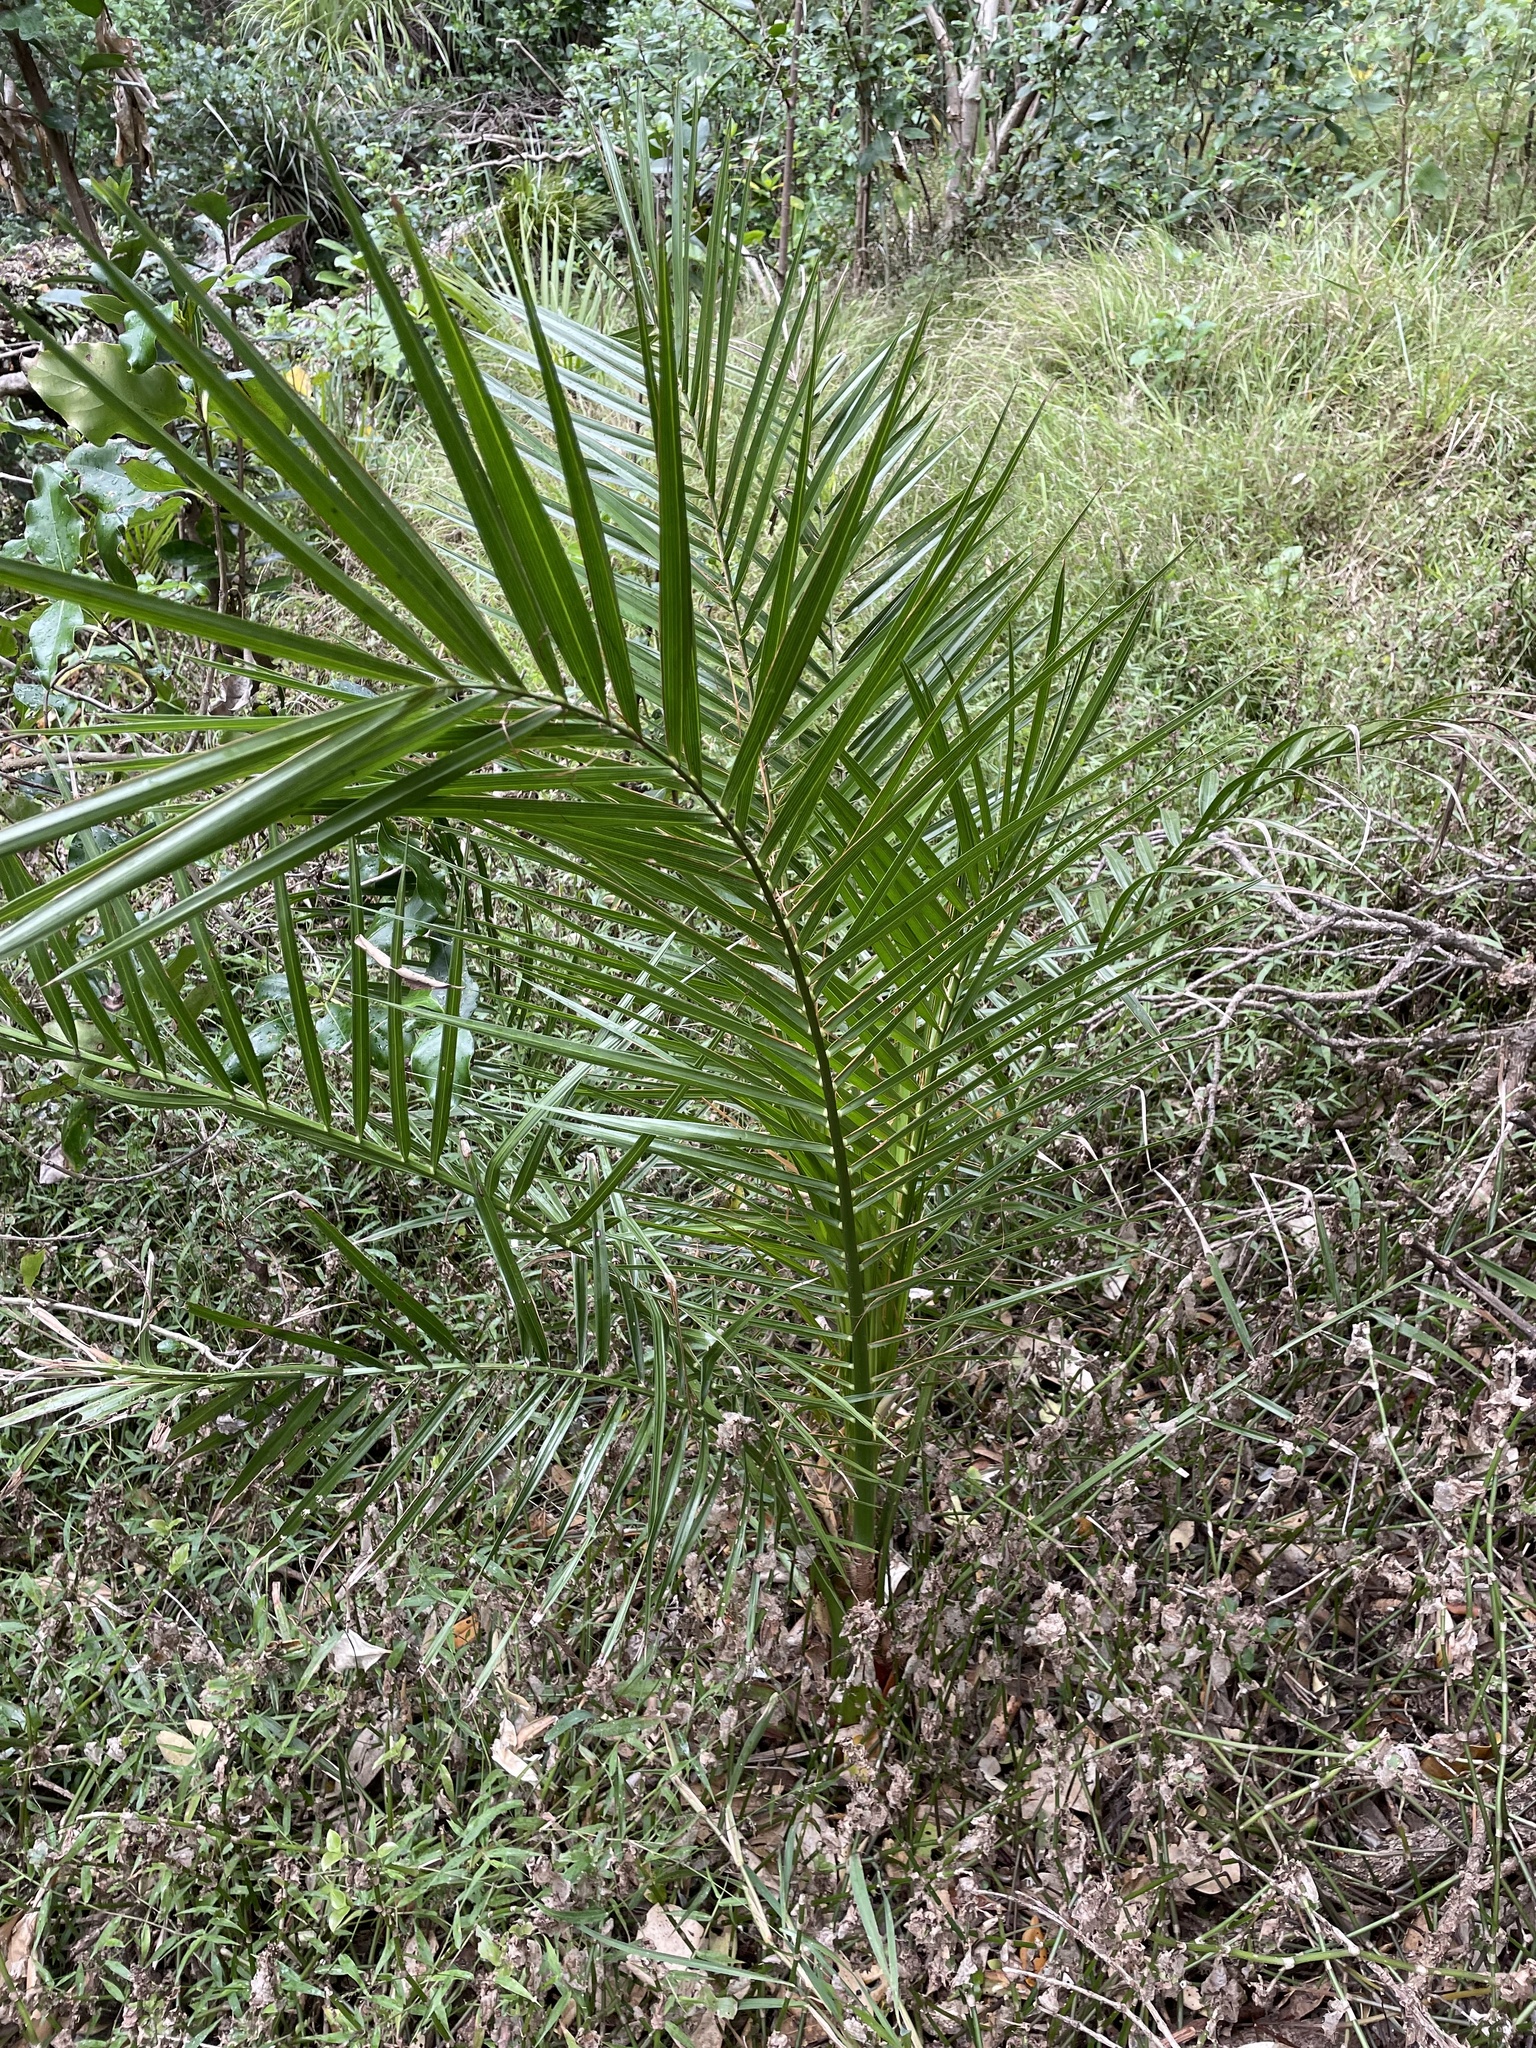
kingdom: Plantae
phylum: Tracheophyta
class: Liliopsida
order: Arecales
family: Arecaceae
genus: Phoenix
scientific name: Phoenix canariensis
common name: Canary island date palm
